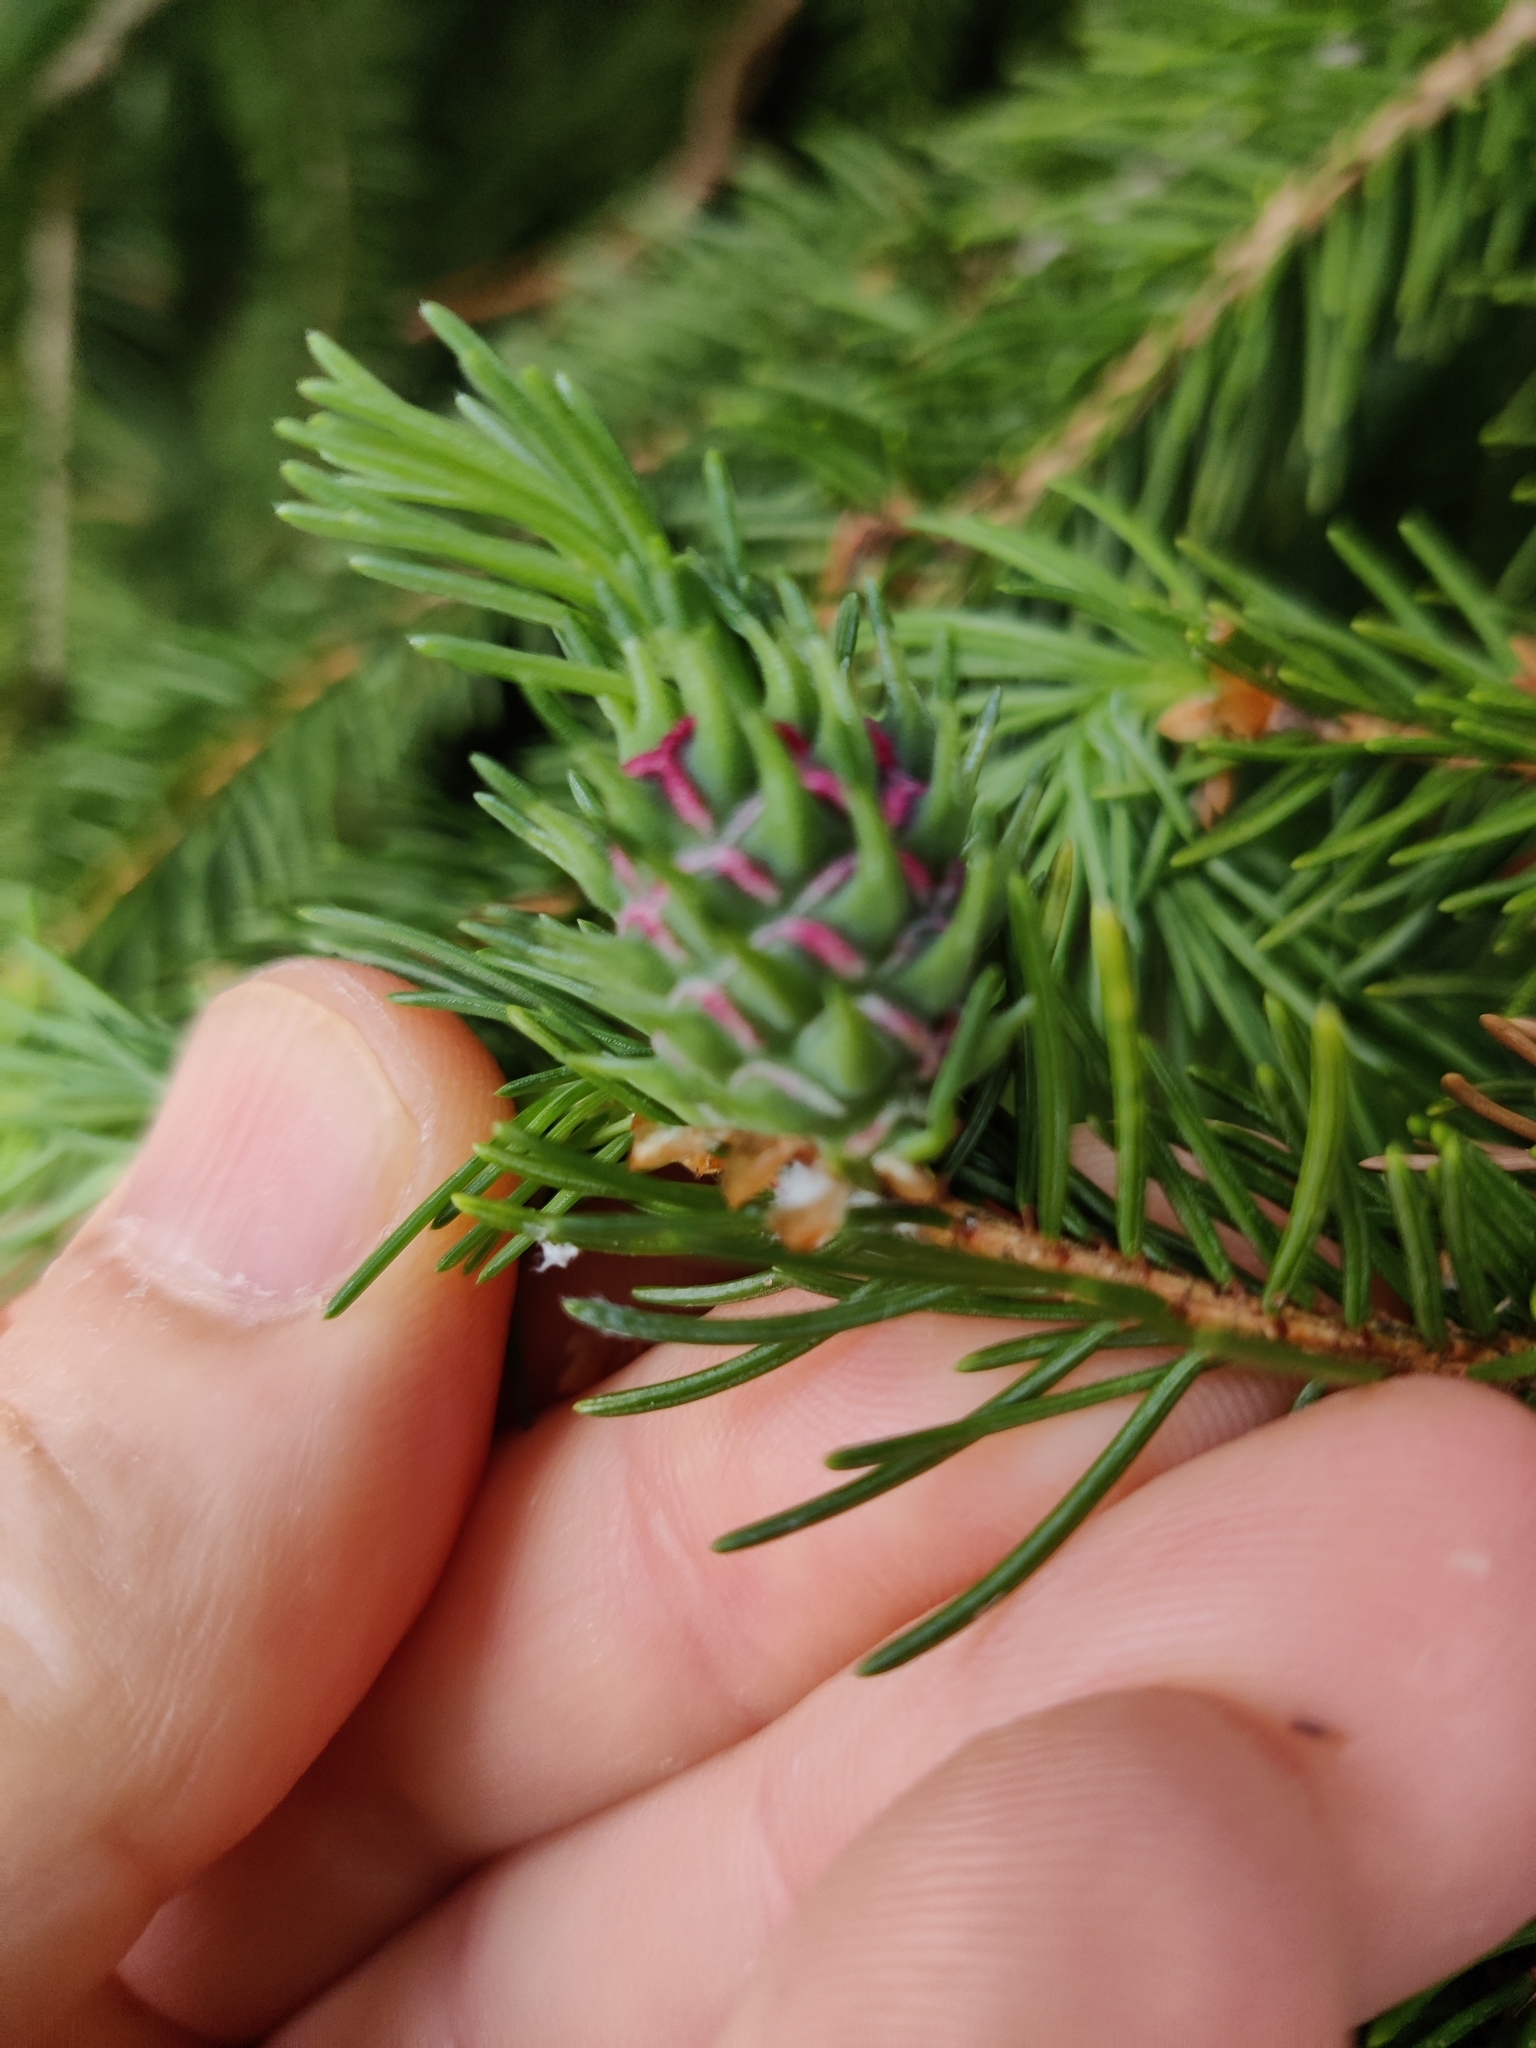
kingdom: Animalia
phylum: Arthropoda
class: Insecta
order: Hemiptera
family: Adelgidae
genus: Adelges
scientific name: Adelges abietis
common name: Eastern spruce gall adelgid
